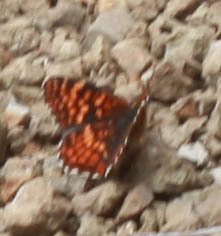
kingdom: Animalia
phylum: Arthropoda
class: Insecta
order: Lepidoptera
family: Nymphalidae
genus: Chlosyne
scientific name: Chlosyne palla
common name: Northern checkerspot
